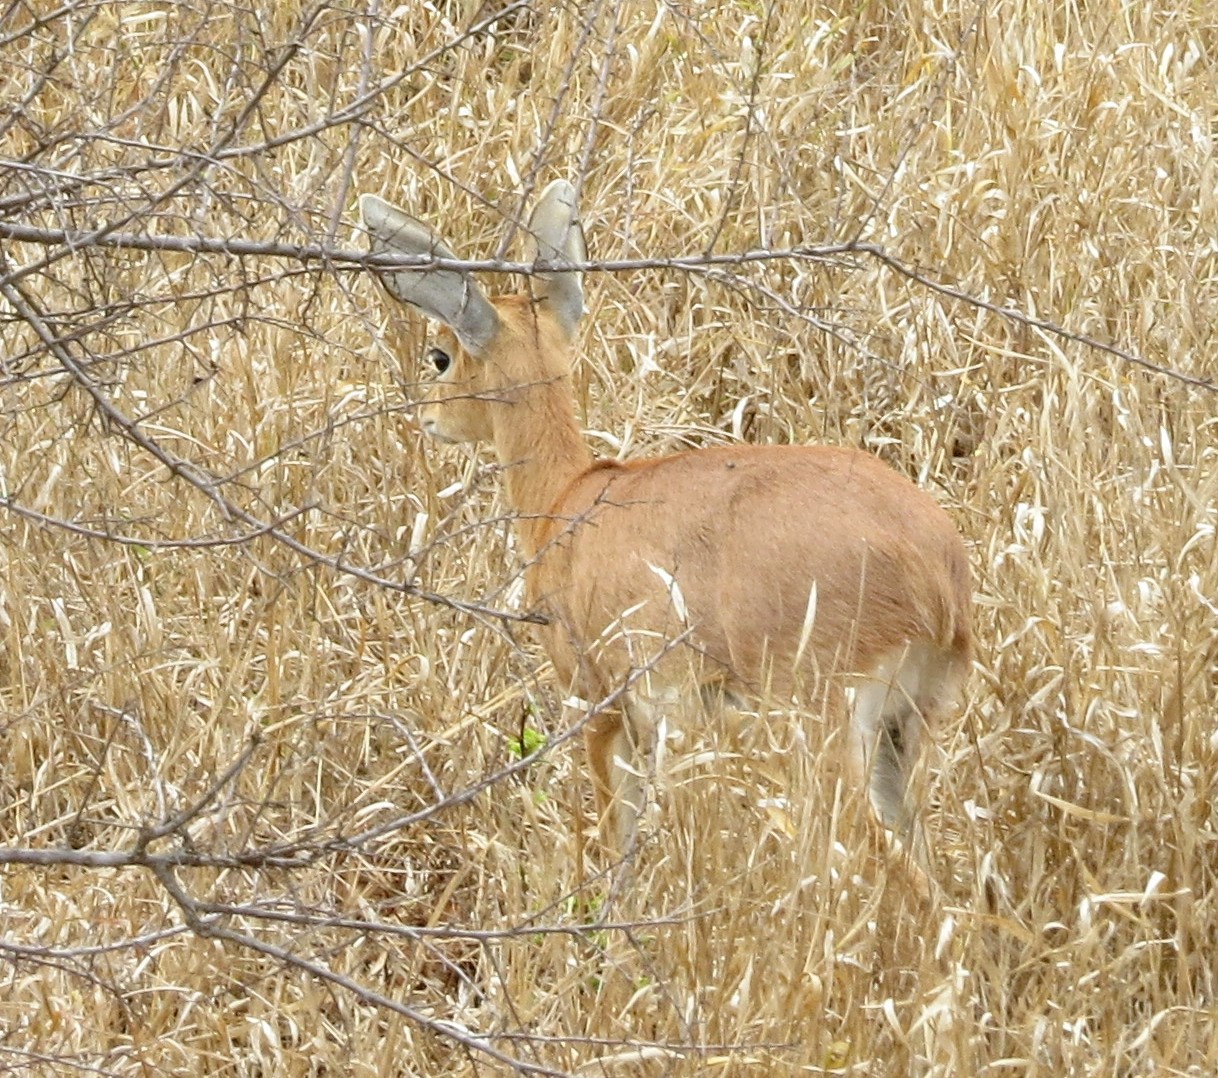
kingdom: Animalia
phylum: Chordata
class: Mammalia
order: Artiodactyla
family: Bovidae
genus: Raphicerus
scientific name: Raphicerus campestris
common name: Steenbok
